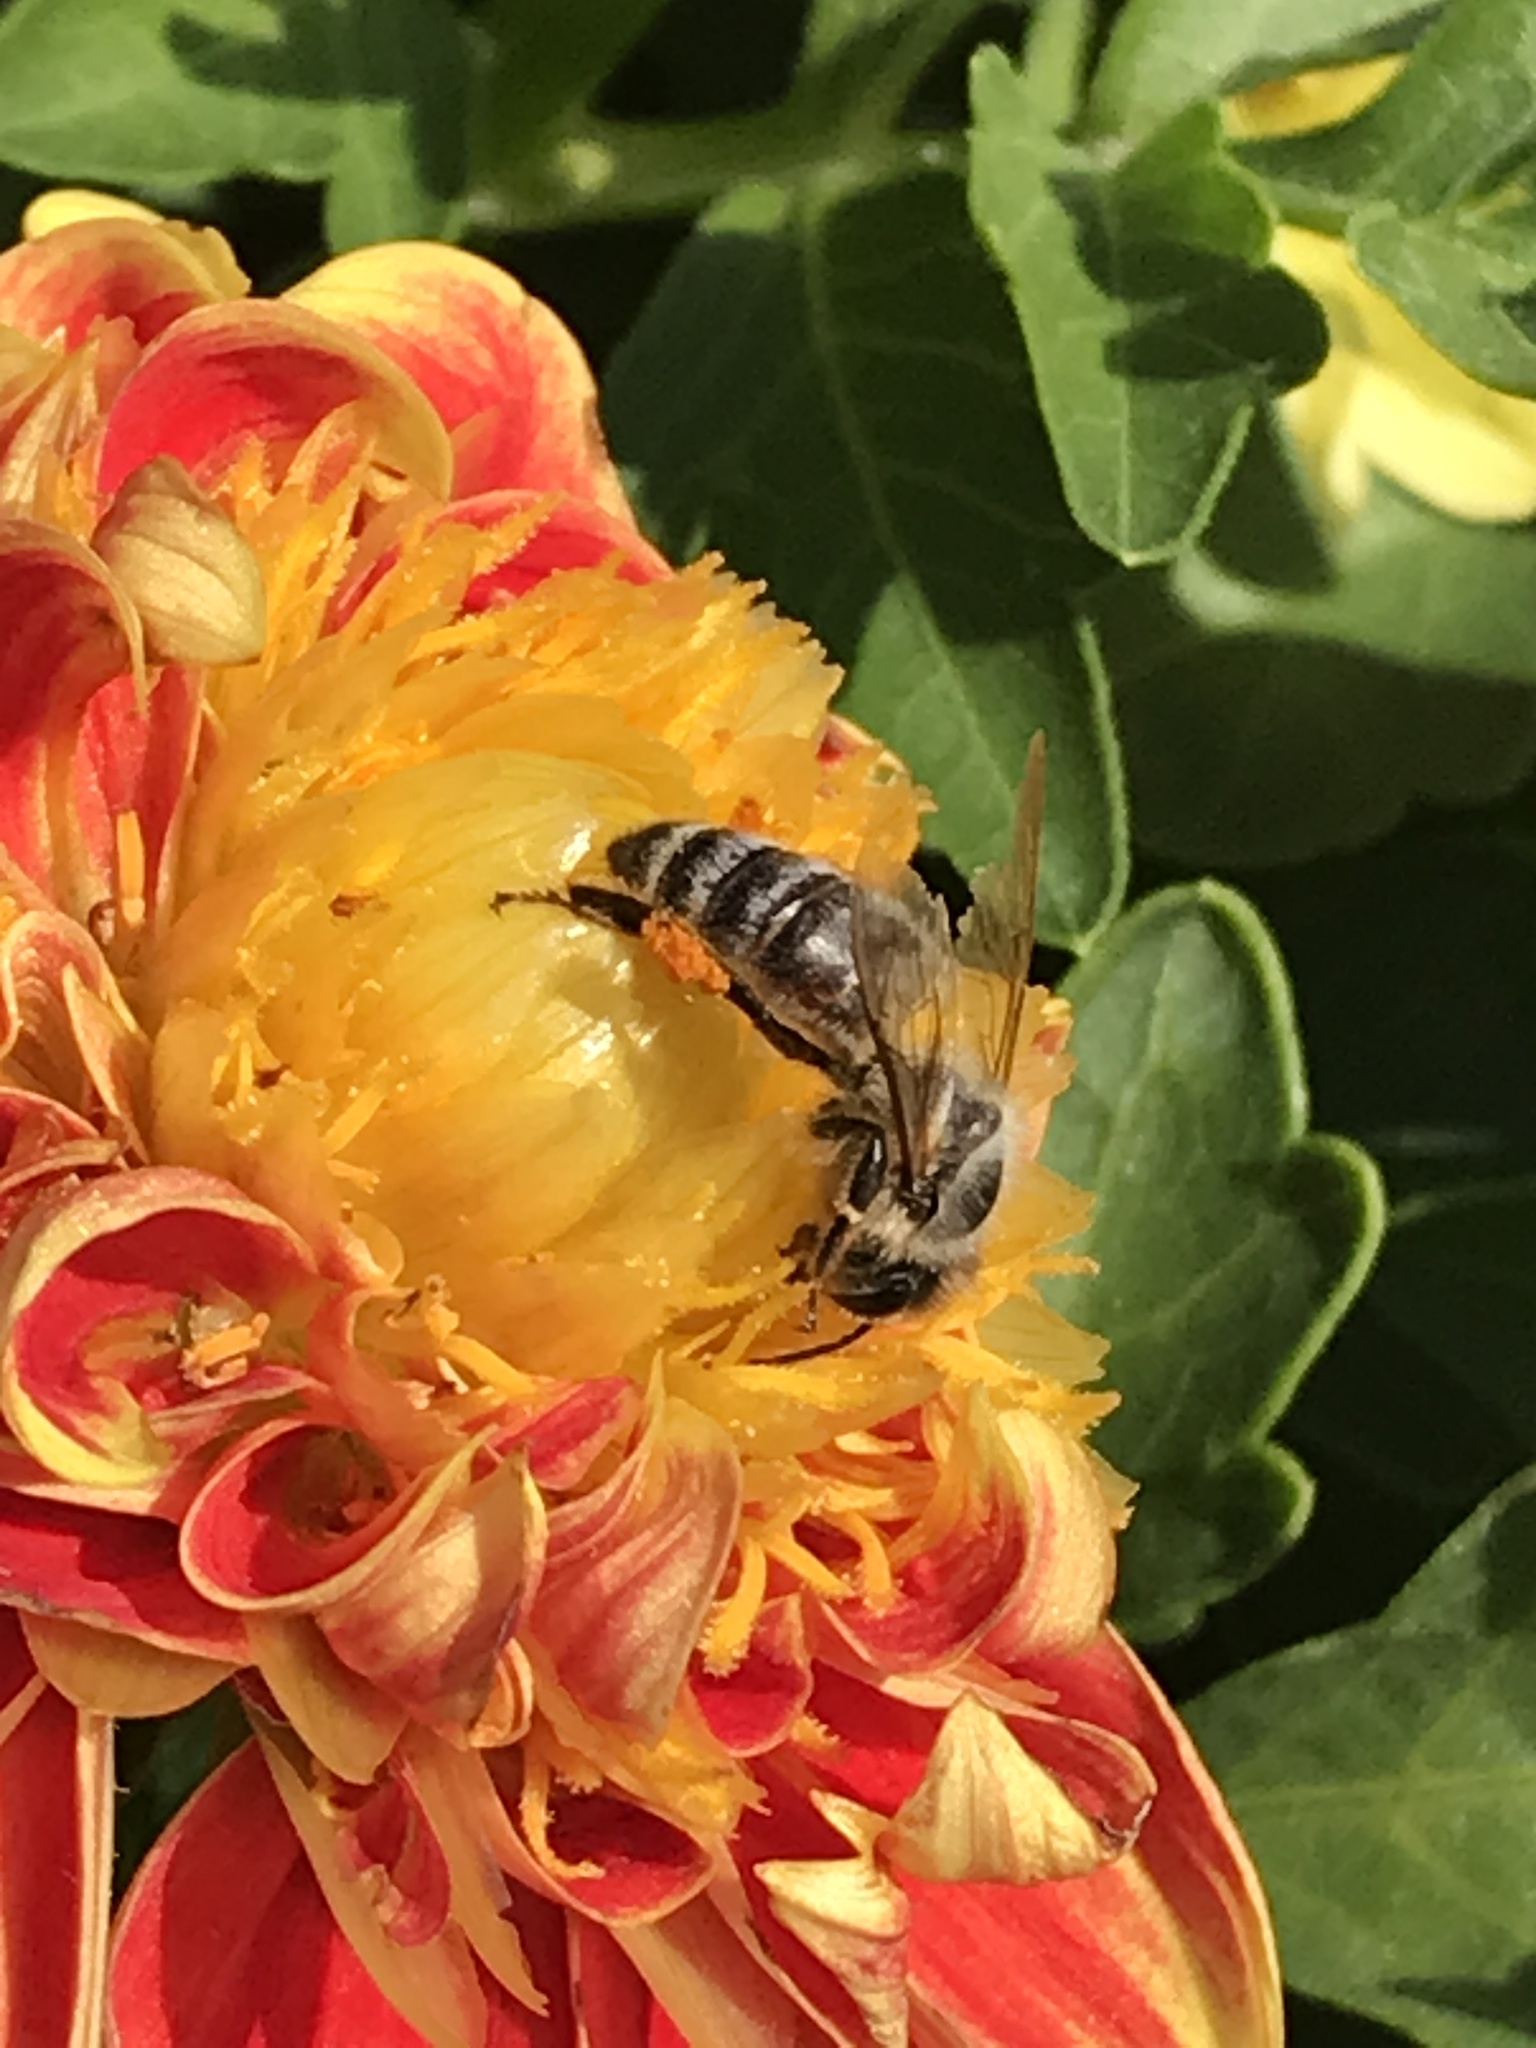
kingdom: Animalia
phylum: Arthropoda
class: Insecta
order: Hymenoptera
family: Apidae
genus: Apis
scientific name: Apis mellifera
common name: Honey bee
